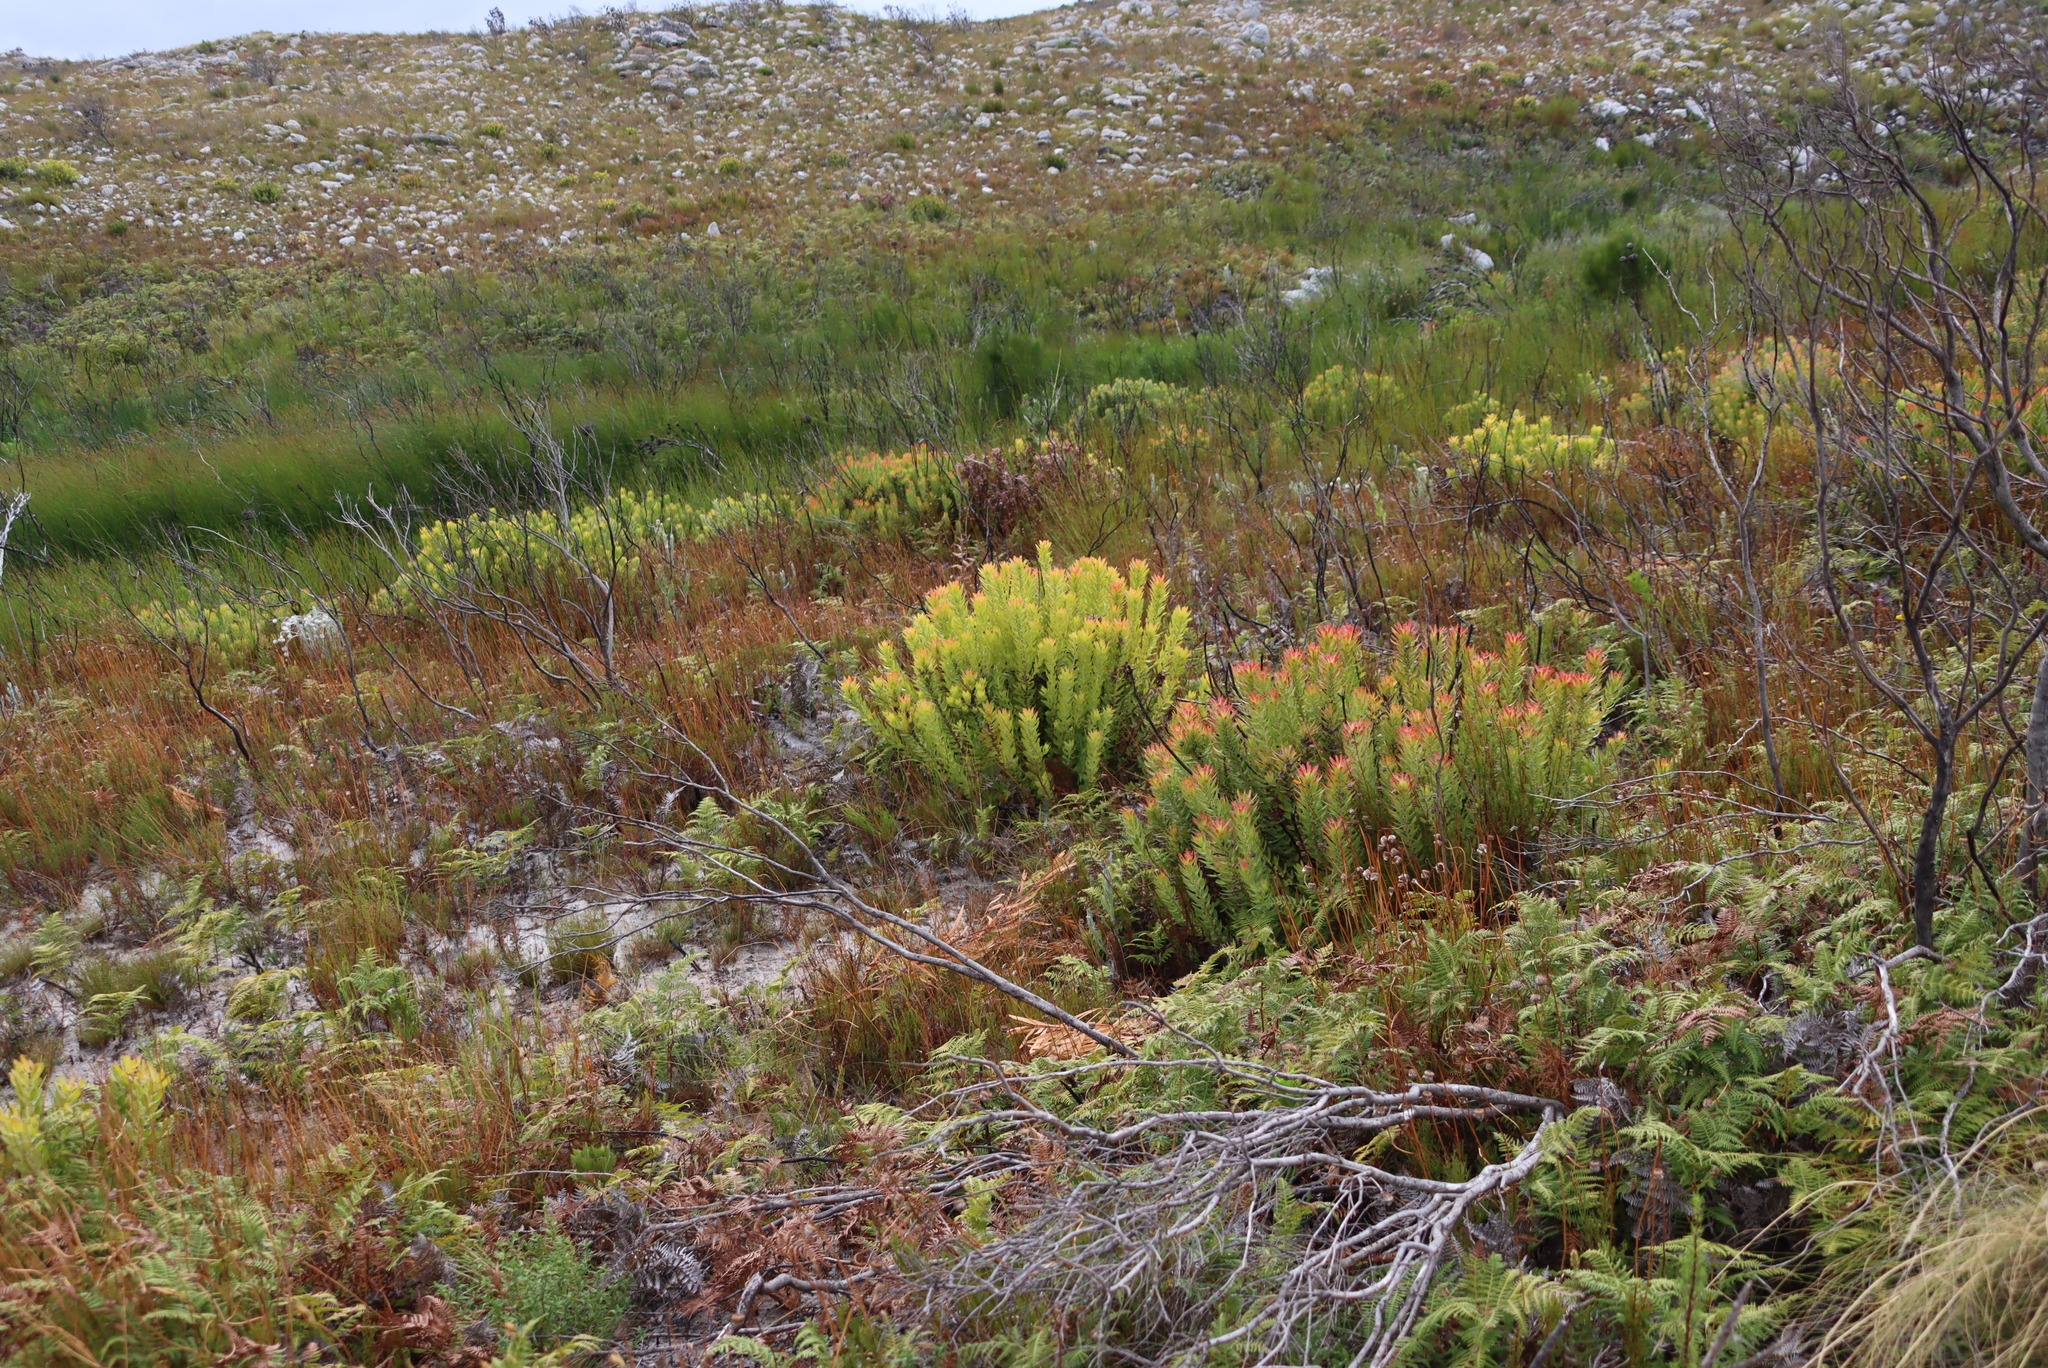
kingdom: Plantae
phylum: Tracheophyta
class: Magnoliopsida
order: Proteales
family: Proteaceae
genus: Mimetes
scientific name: Mimetes cucullatus
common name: Common pagoda
